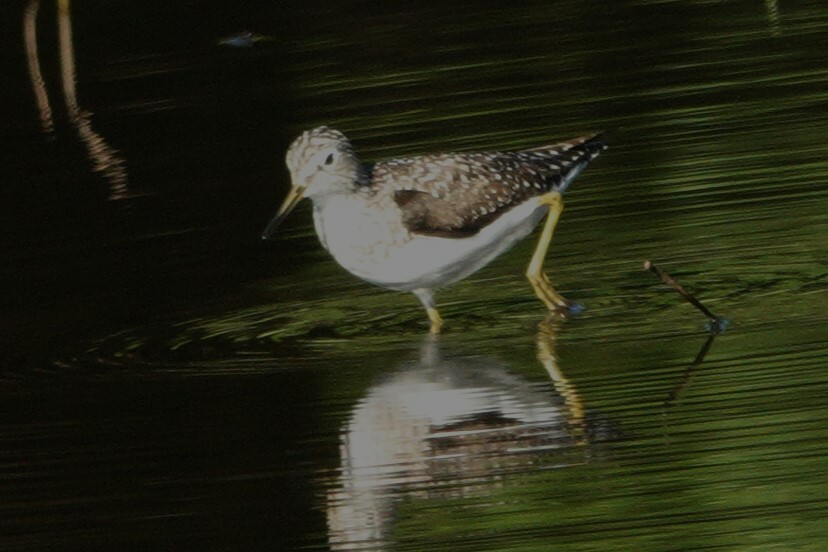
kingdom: Animalia
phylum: Chordata
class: Aves
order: Charadriiformes
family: Scolopacidae
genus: Tringa
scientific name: Tringa solitaria
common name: Solitary sandpiper
